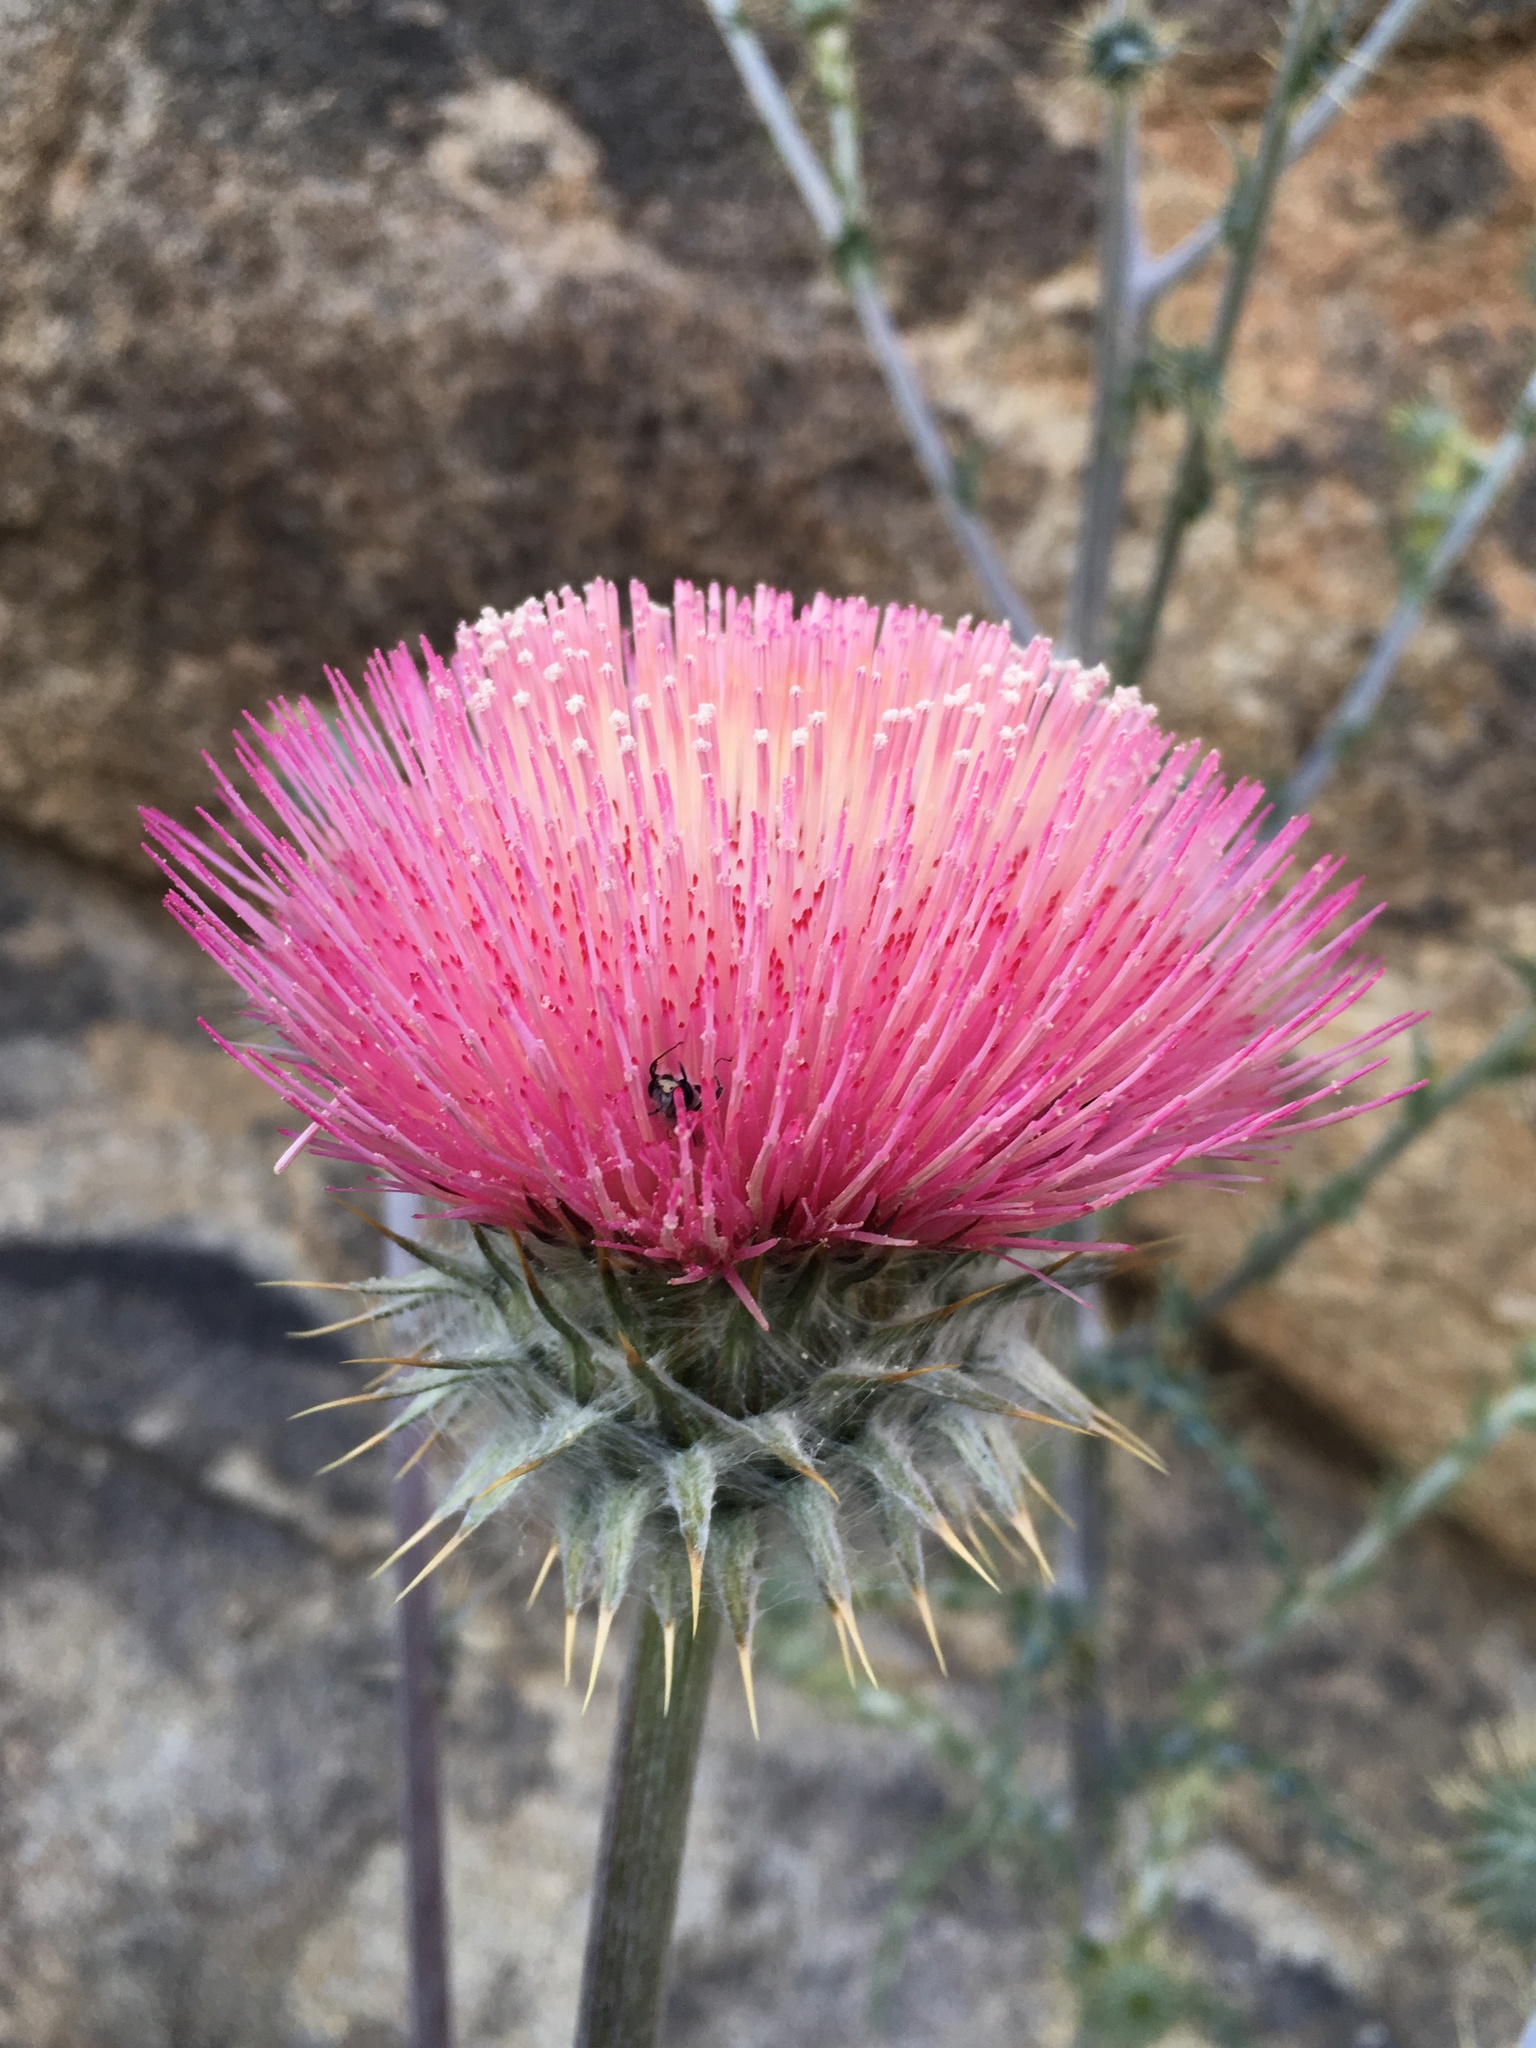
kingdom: Plantae
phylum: Tracheophyta
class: Magnoliopsida
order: Asterales
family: Asteraceae
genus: Cirsium
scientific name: Cirsium occidentale
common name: Western thistle
